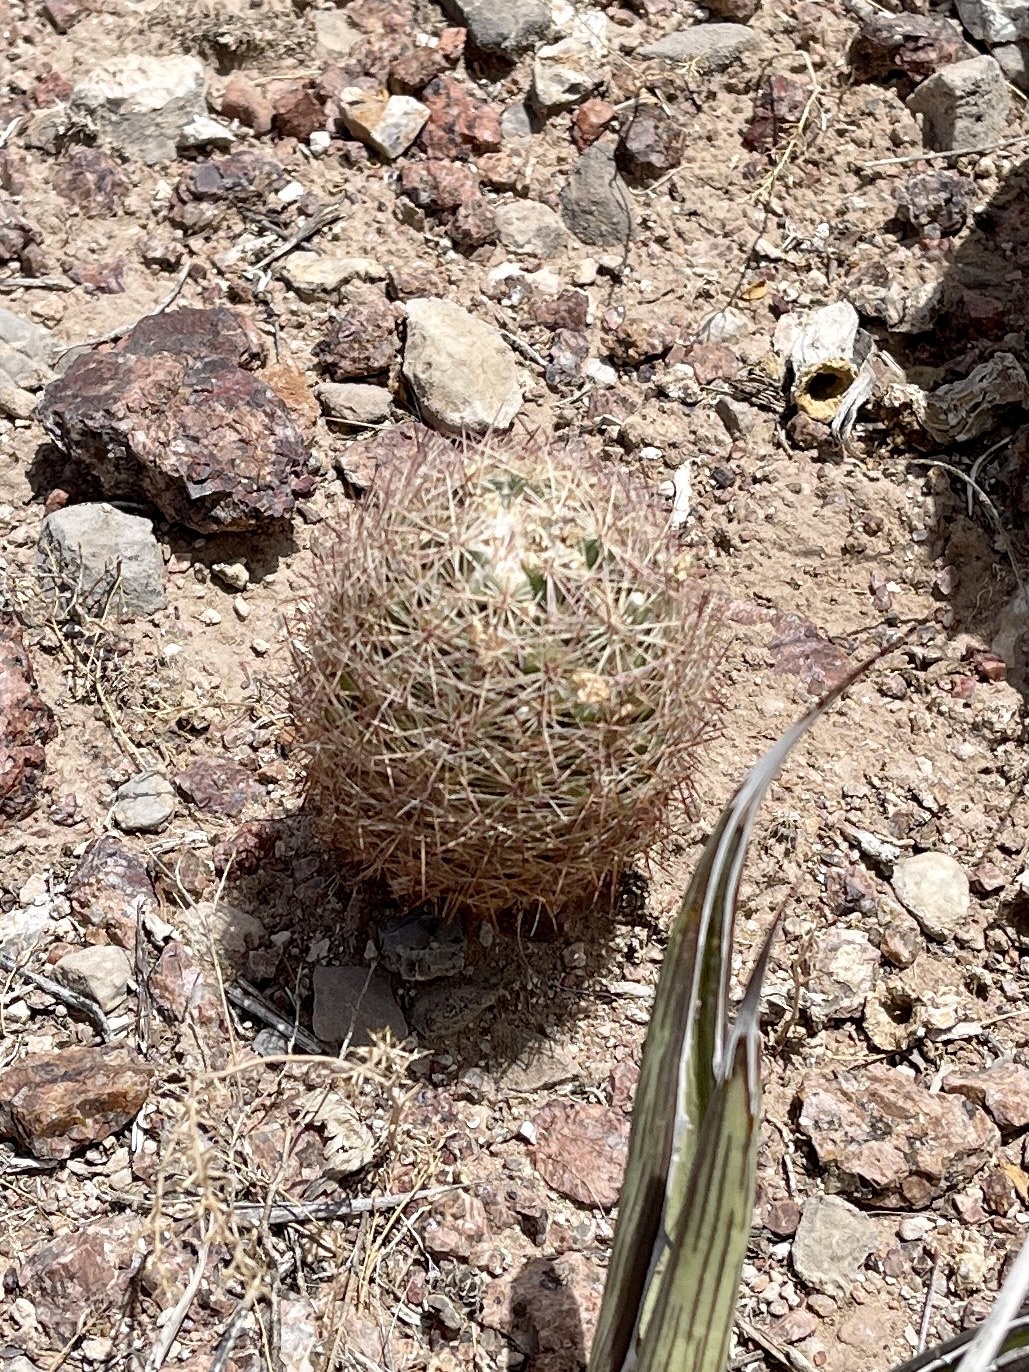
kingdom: Plantae
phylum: Tracheophyta
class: Magnoliopsida
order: Caryophyllales
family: Cactaceae
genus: Sclerocactus
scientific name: Sclerocactus intertextus
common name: White fish-hook cactus
